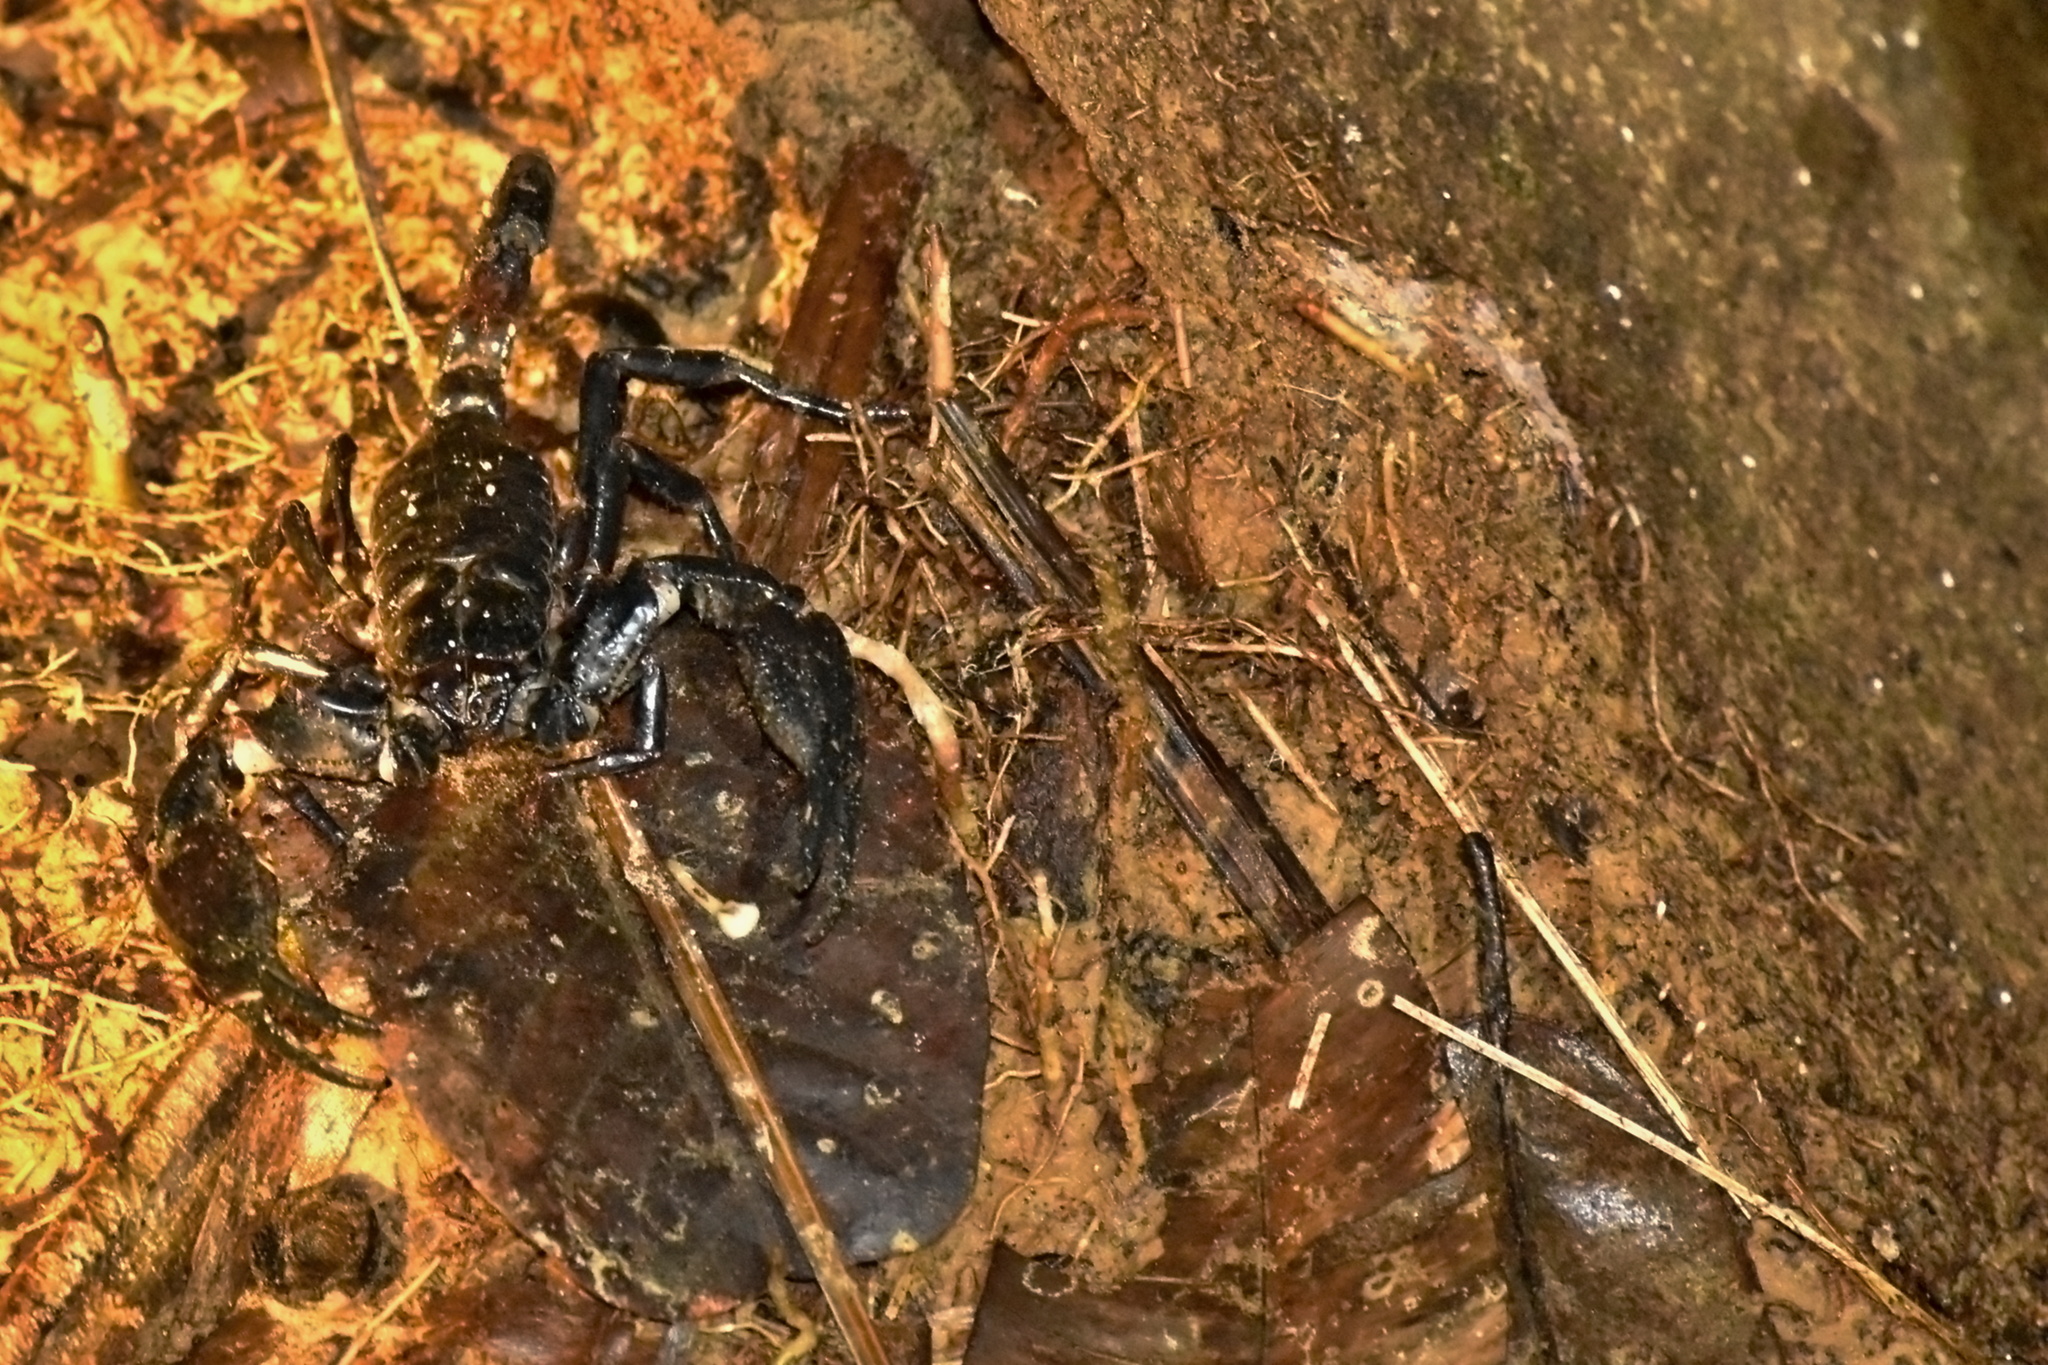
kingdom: Animalia
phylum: Arthropoda
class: Arachnida
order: Scorpiones
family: Scorpionidae
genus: Heterometrus
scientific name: Heterometrus longimanus
